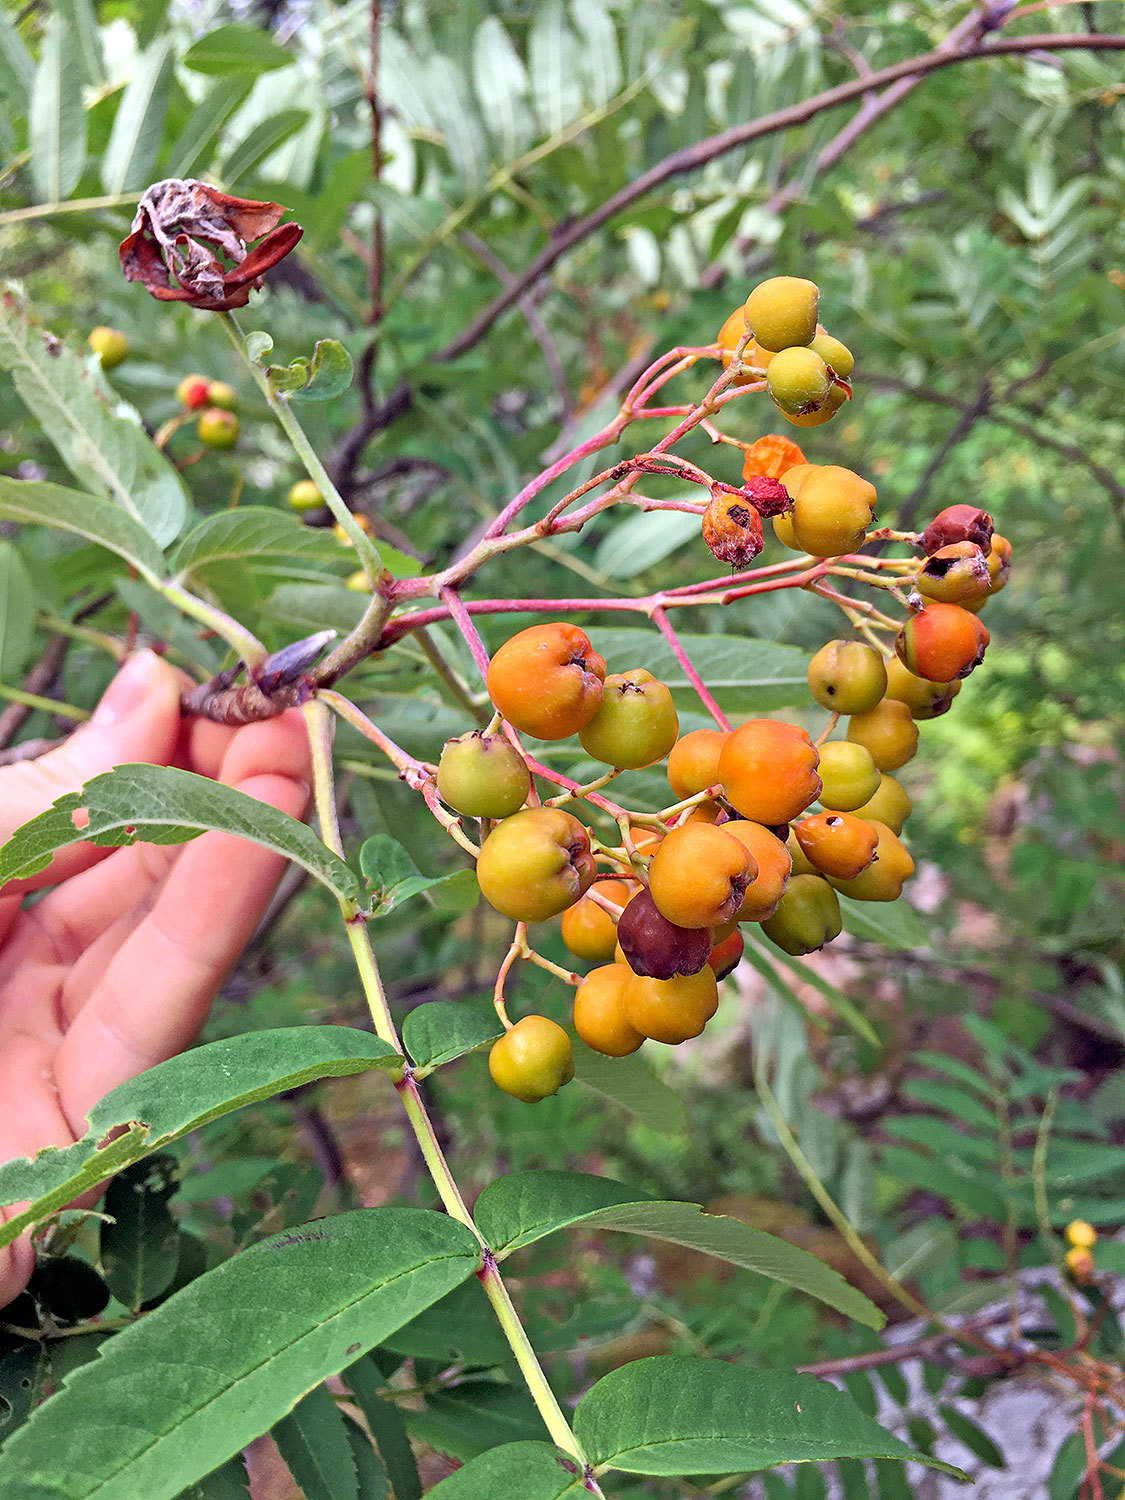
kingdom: Plantae
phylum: Tracheophyta
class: Magnoliopsida
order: Rosales
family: Rosaceae
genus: Sorbus
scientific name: Sorbus aucuparia
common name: Rowan
